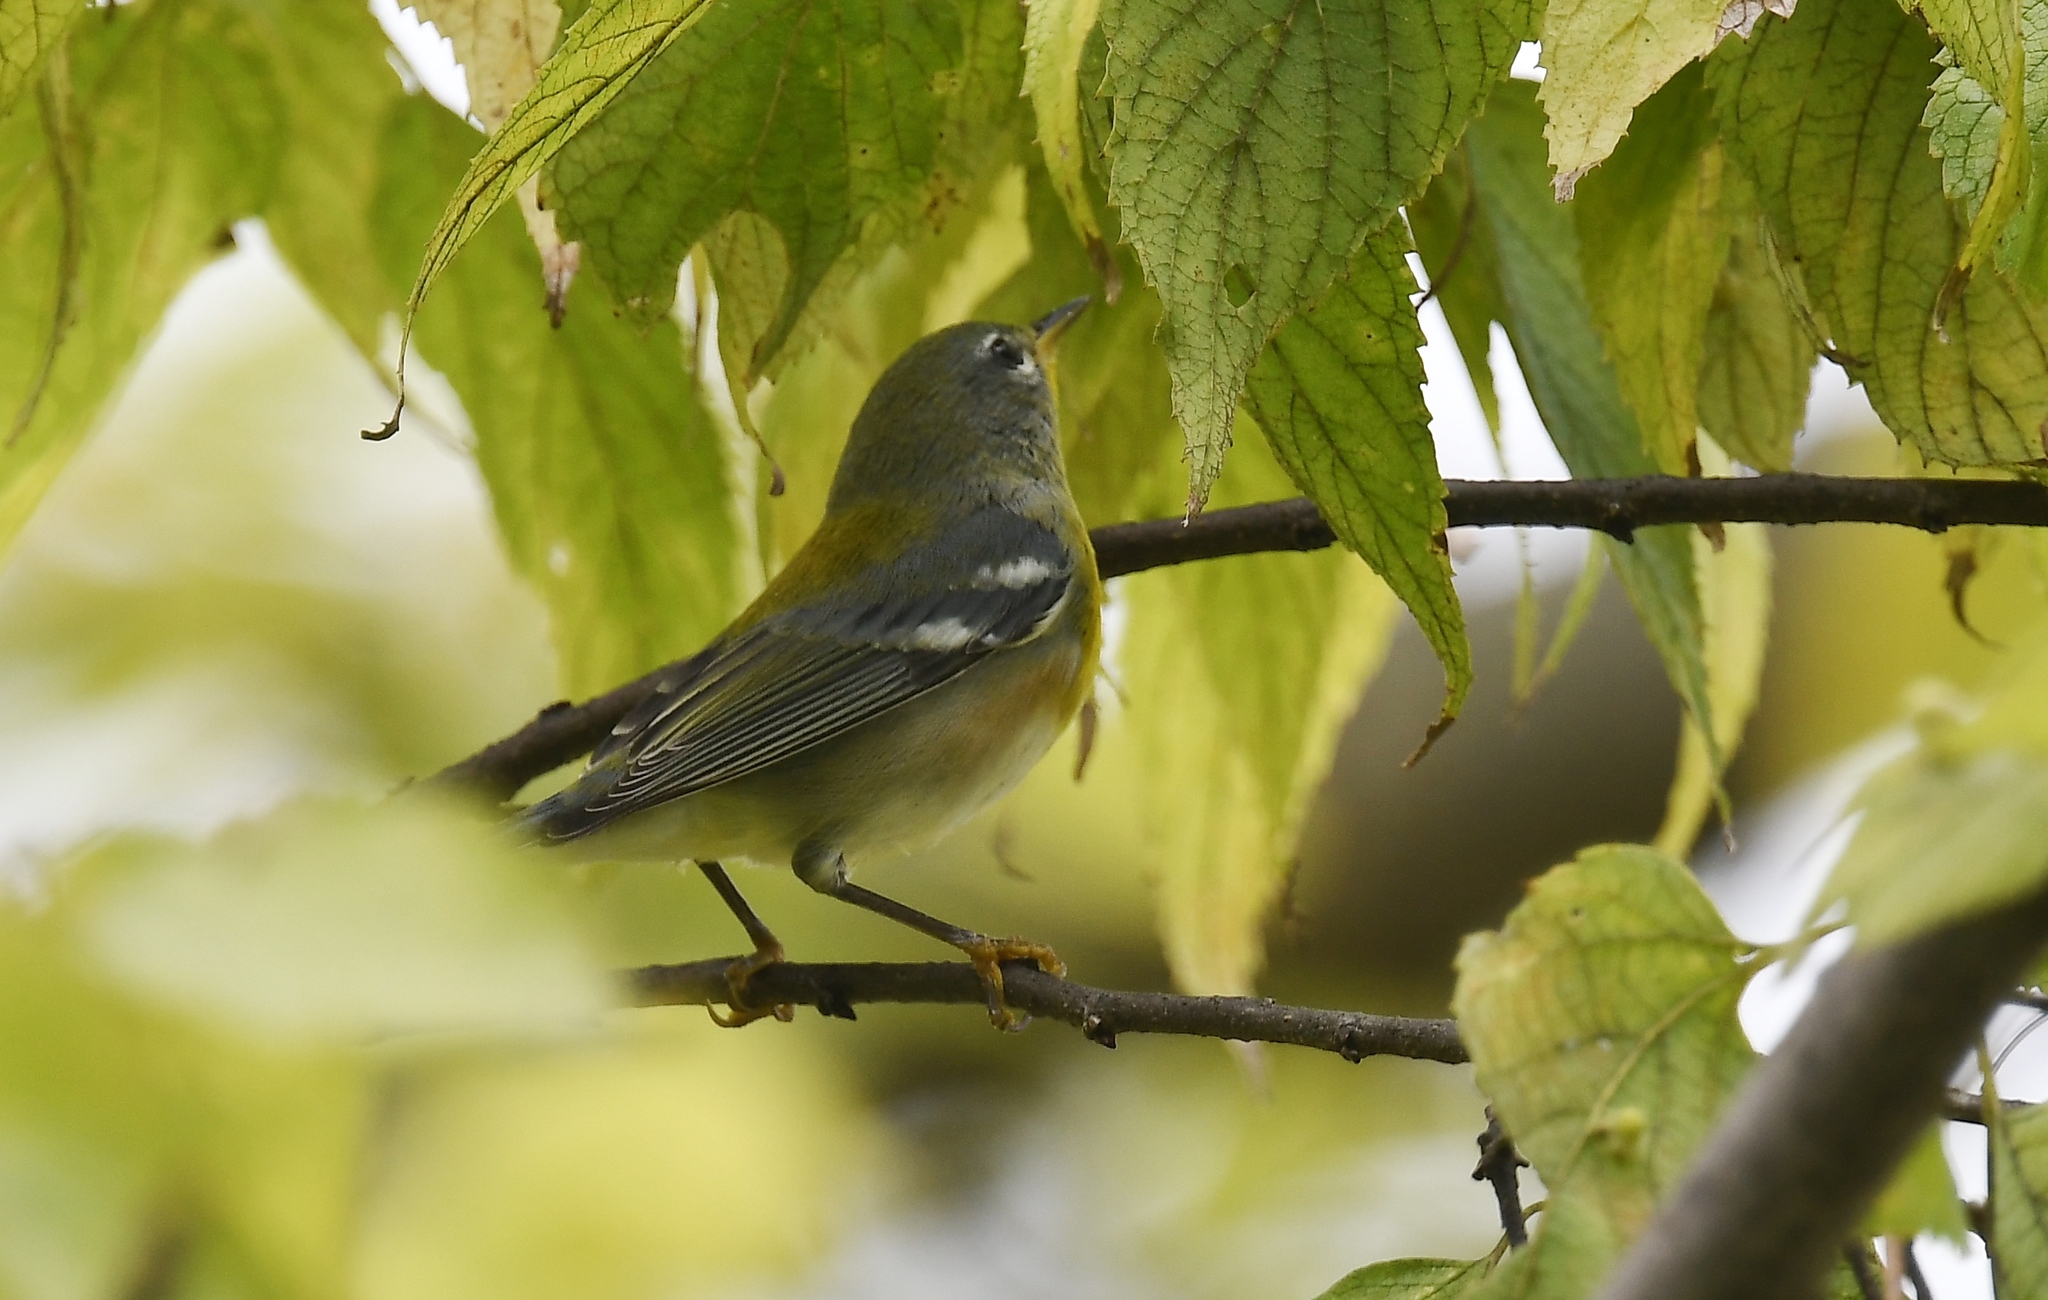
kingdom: Animalia
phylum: Chordata
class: Aves
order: Passeriformes
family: Parulidae
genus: Setophaga
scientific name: Setophaga americana
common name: Northern parula
